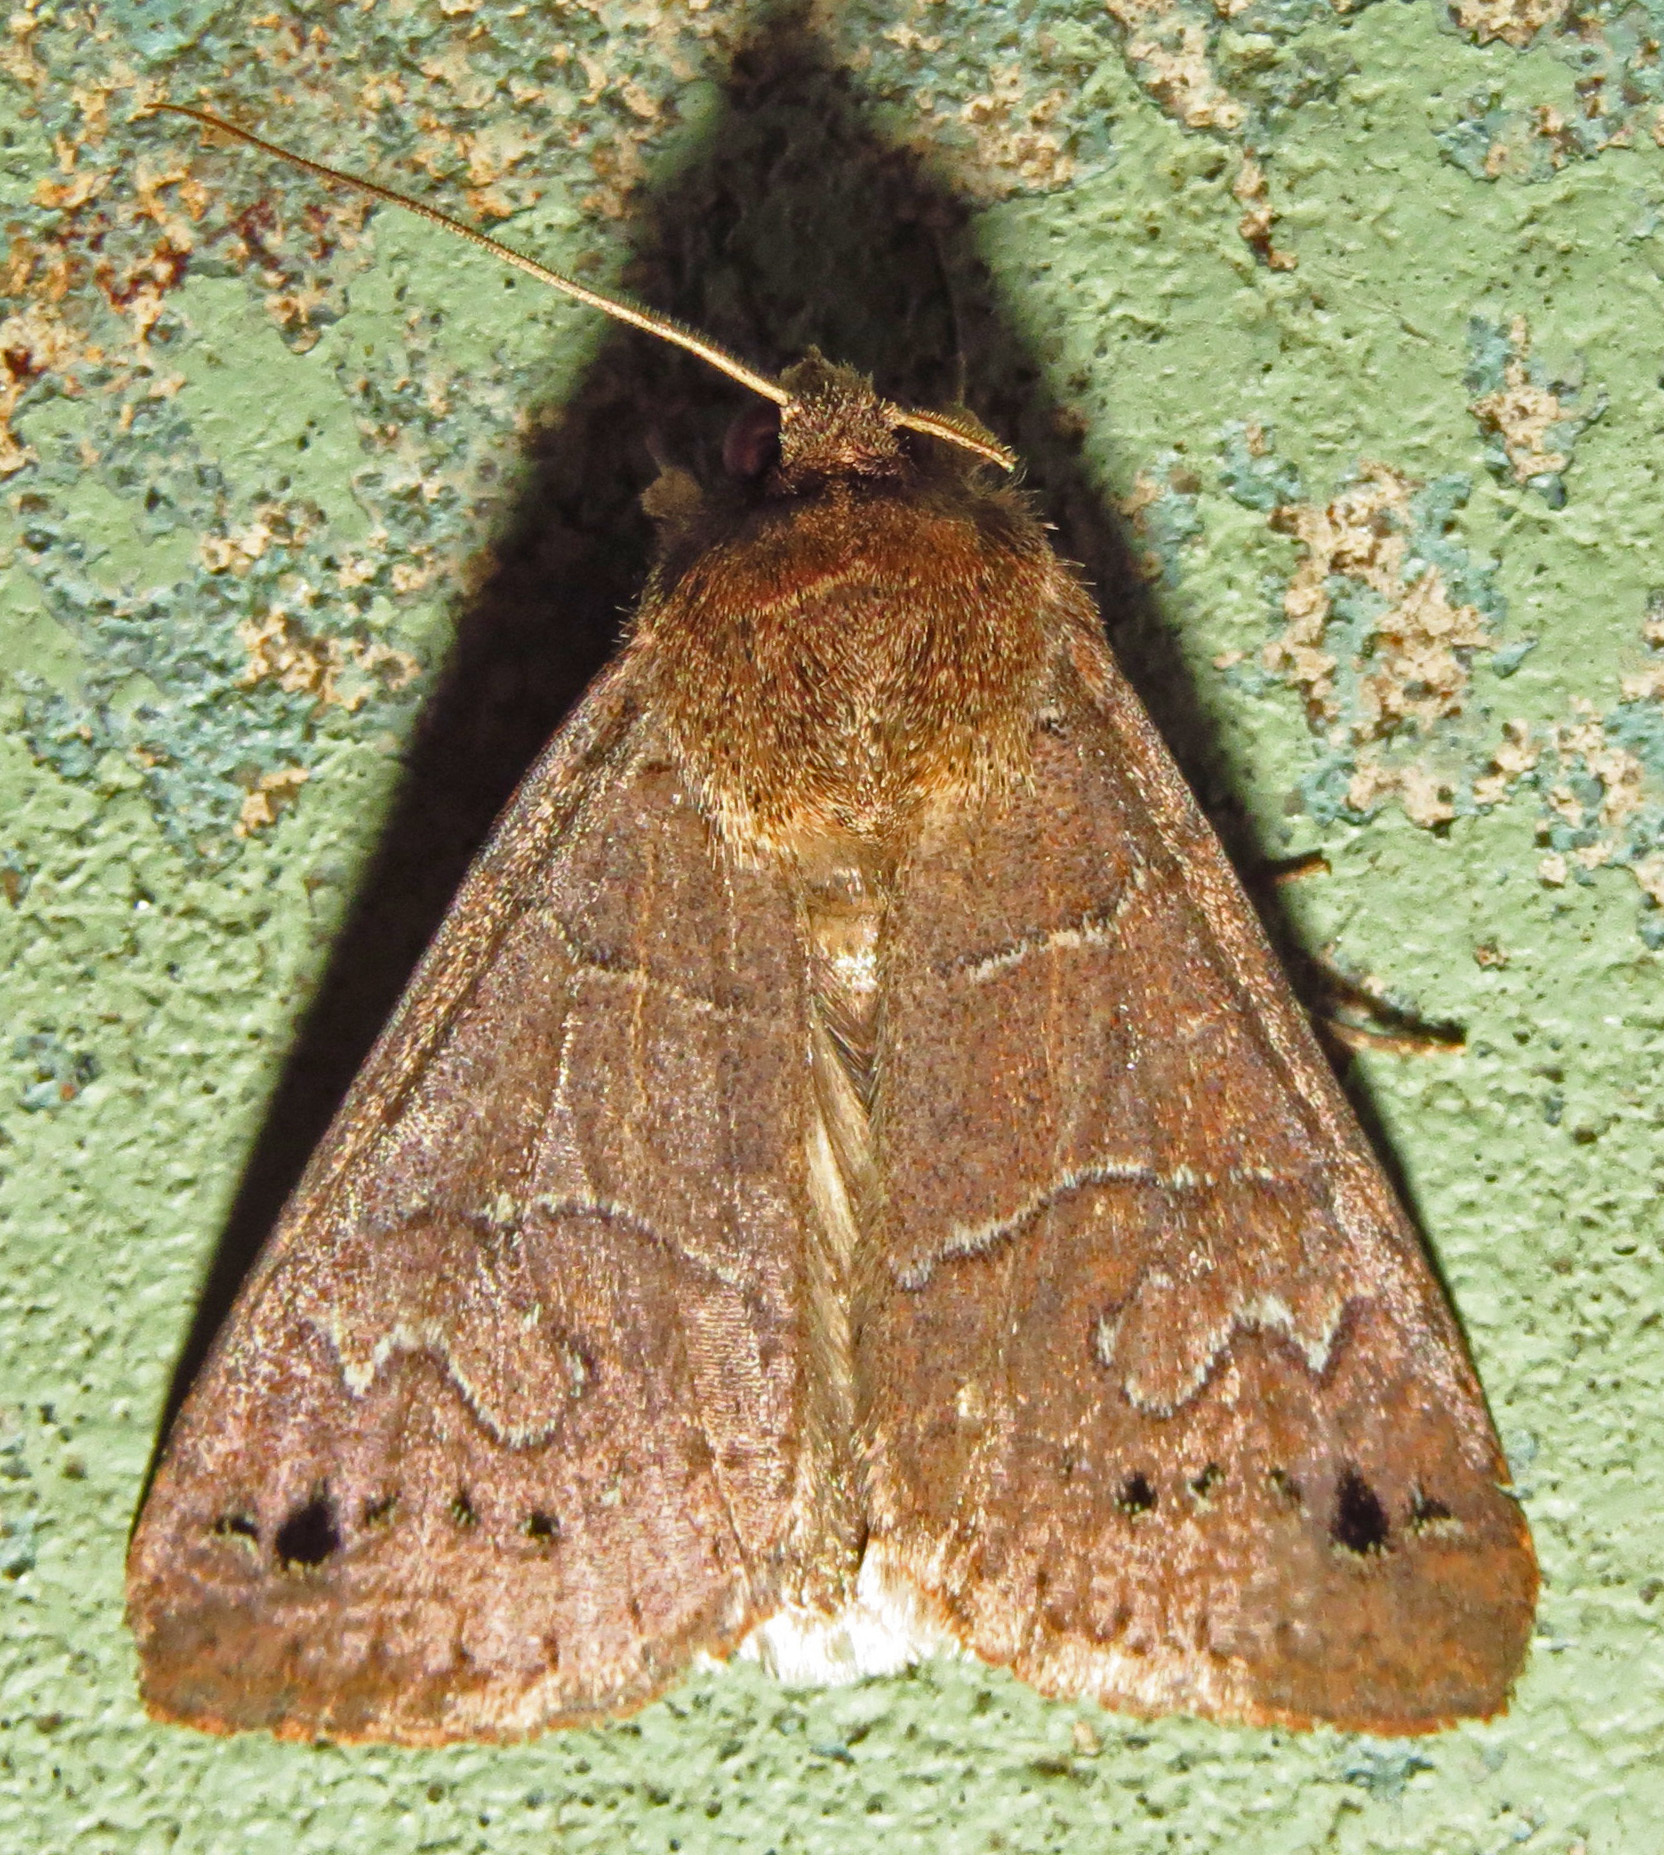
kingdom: Animalia
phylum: Arthropoda
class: Insecta
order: Lepidoptera
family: Erebidae
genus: Cissusa
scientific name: Cissusa spadix
